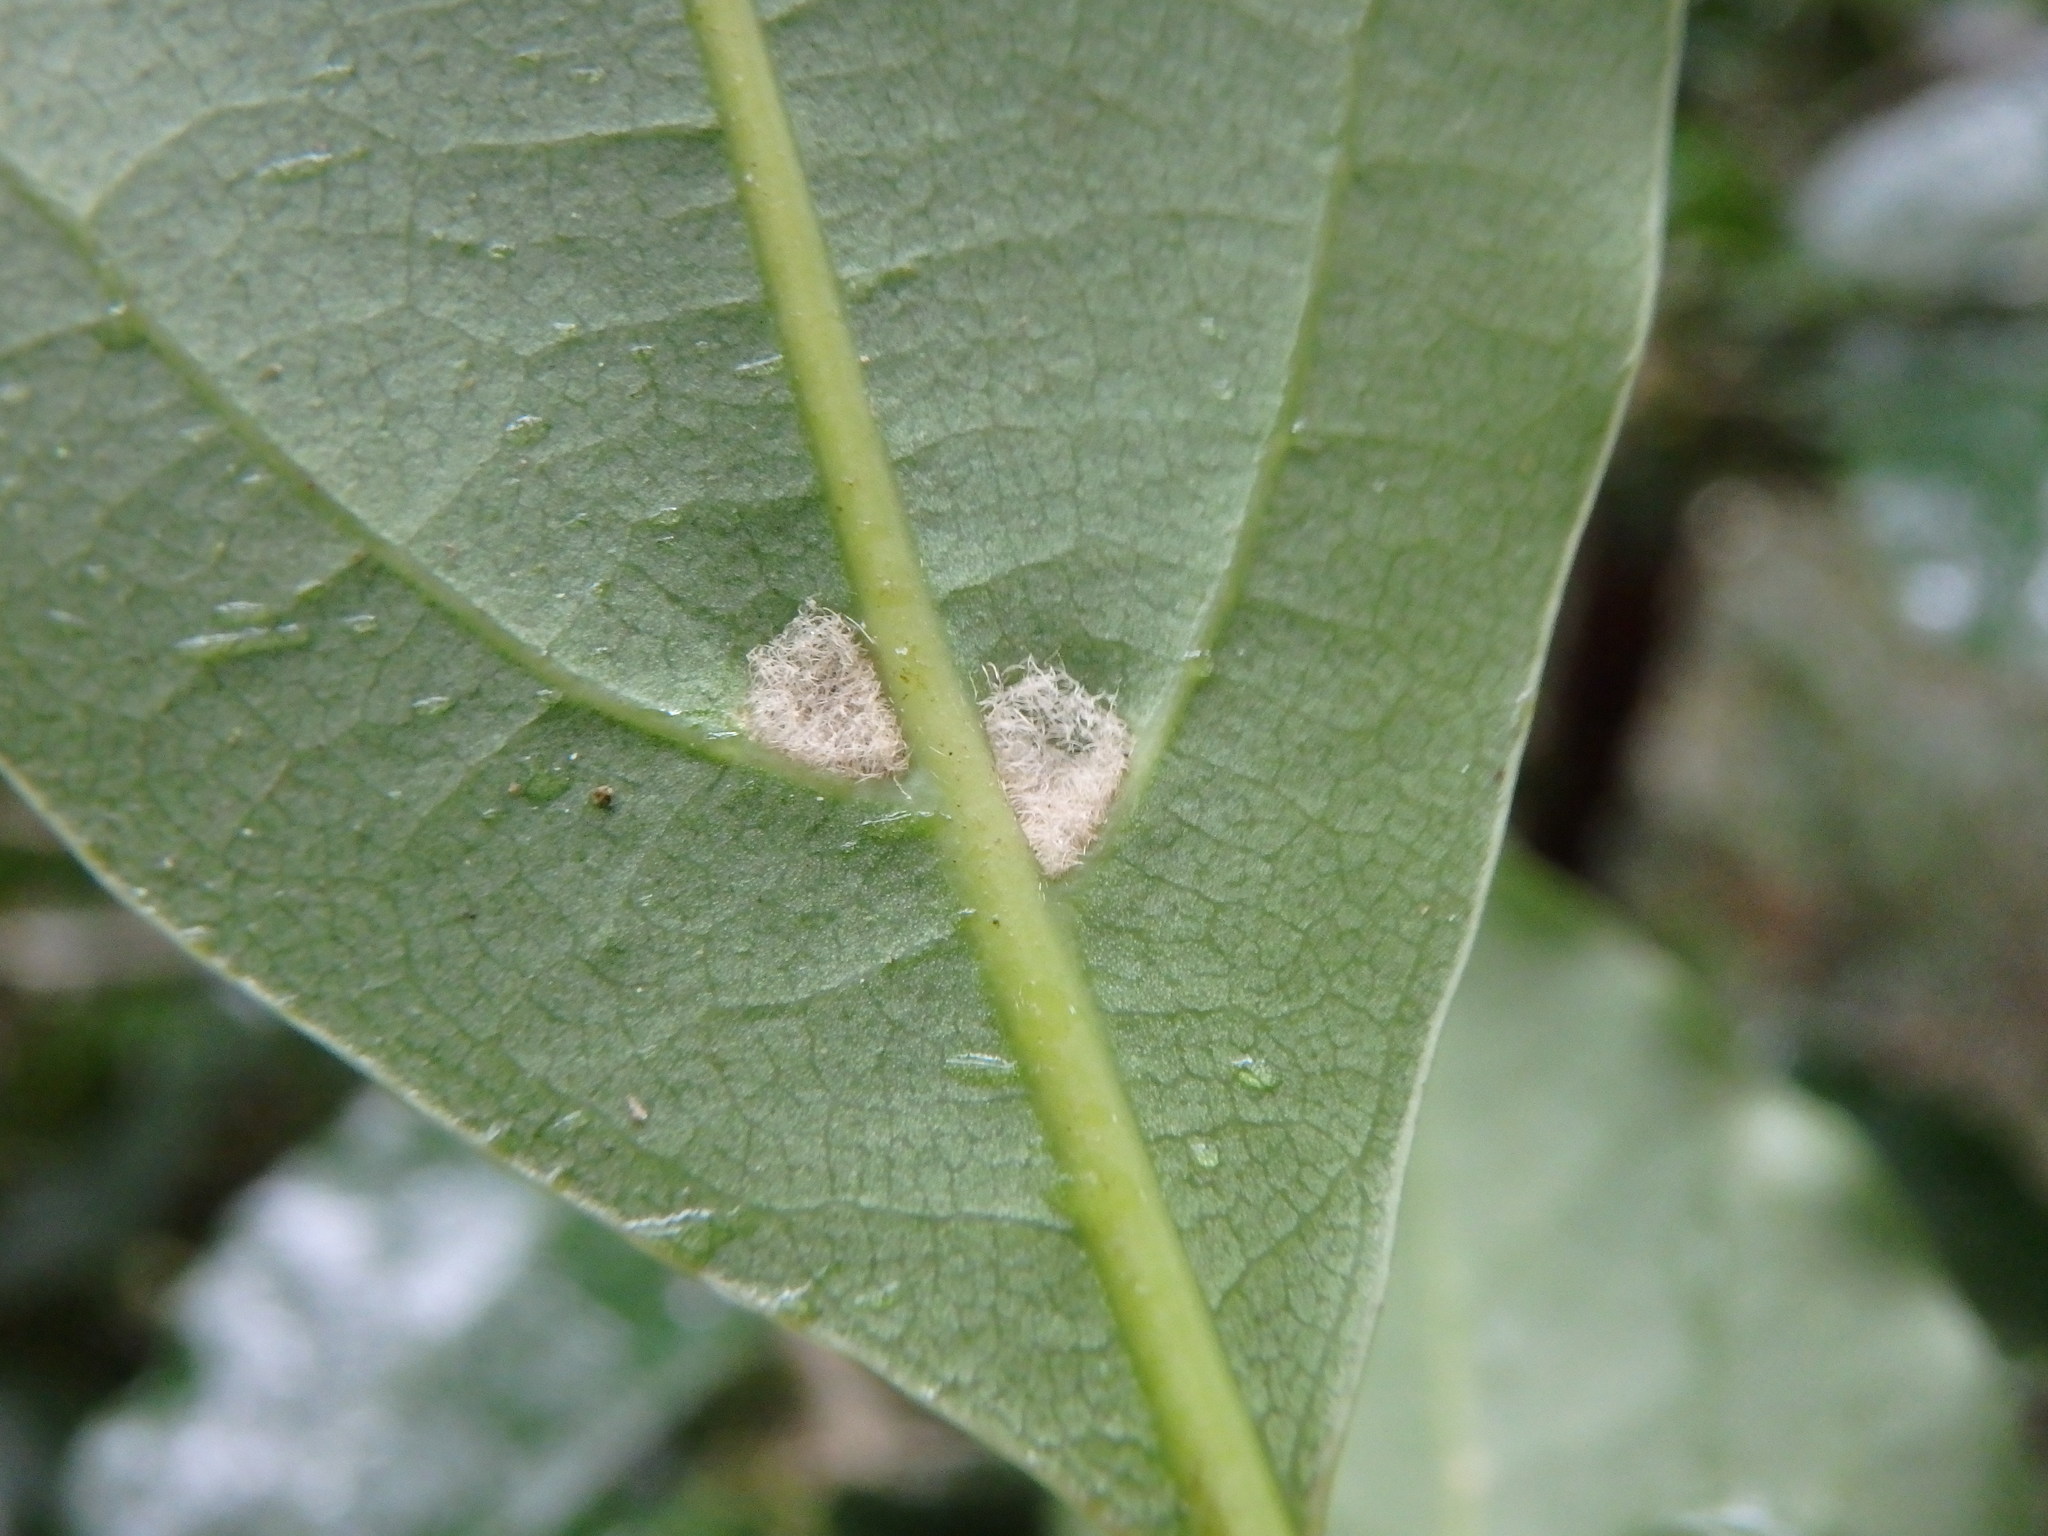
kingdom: Plantae
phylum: Tracheophyta
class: Magnoliopsida
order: Laurales
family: Lauraceae
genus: Mespilodaphne
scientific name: Mespilodaphne foetens
